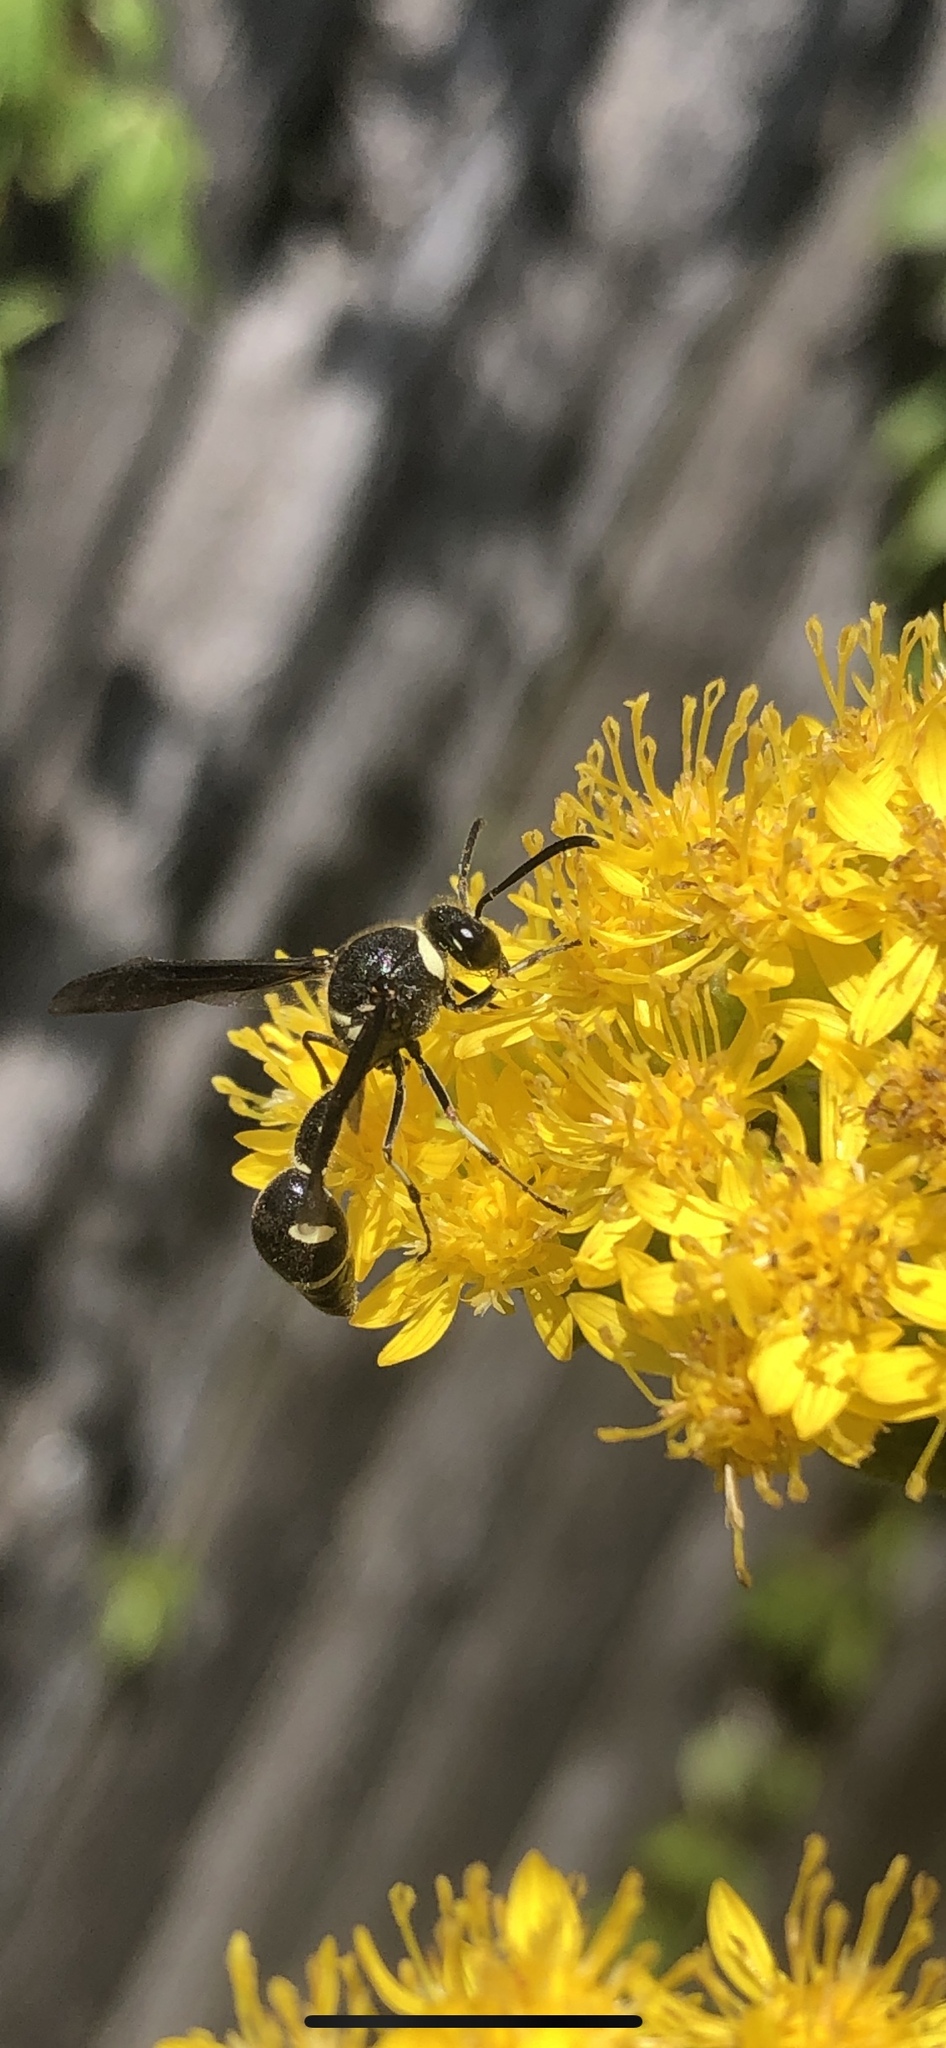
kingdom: Animalia
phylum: Arthropoda
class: Insecta
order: Hymenoptera
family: Vespidae
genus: Eumenes
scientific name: Eumenes fraternus
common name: Fraternal potter wasp
